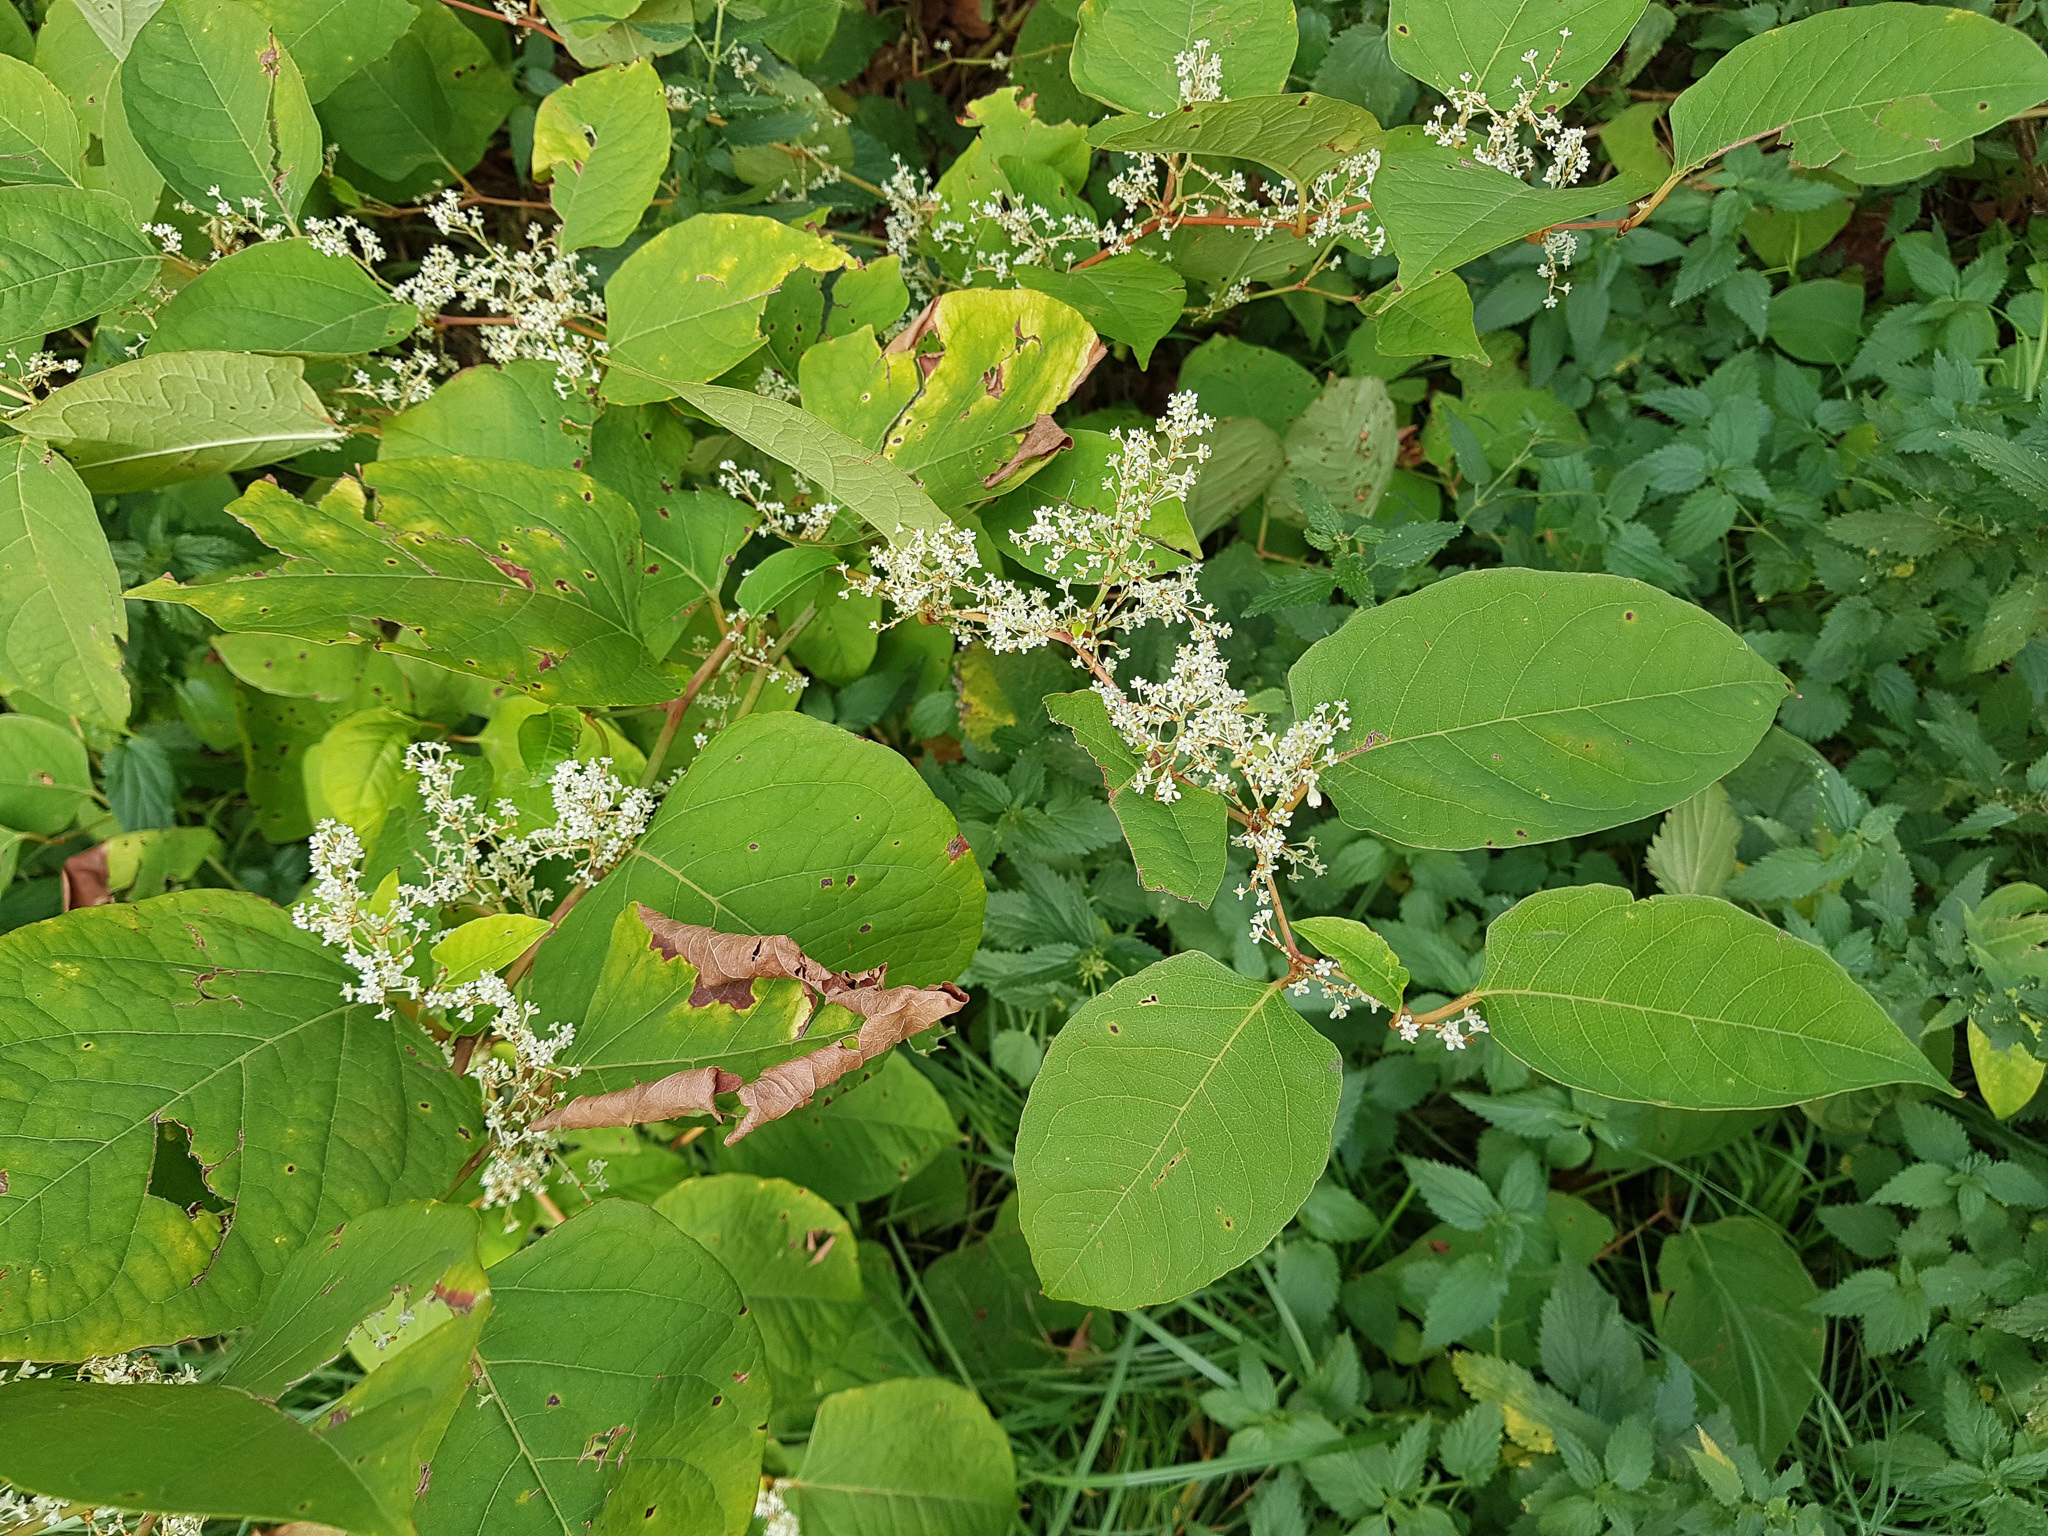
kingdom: Plantae
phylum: Tracheophyta
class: Magnoliopsida
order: Caryophyllales
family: Polygonaceae
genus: Reynoutria
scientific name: Reynoutria japonica
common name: Japanese knotweed
